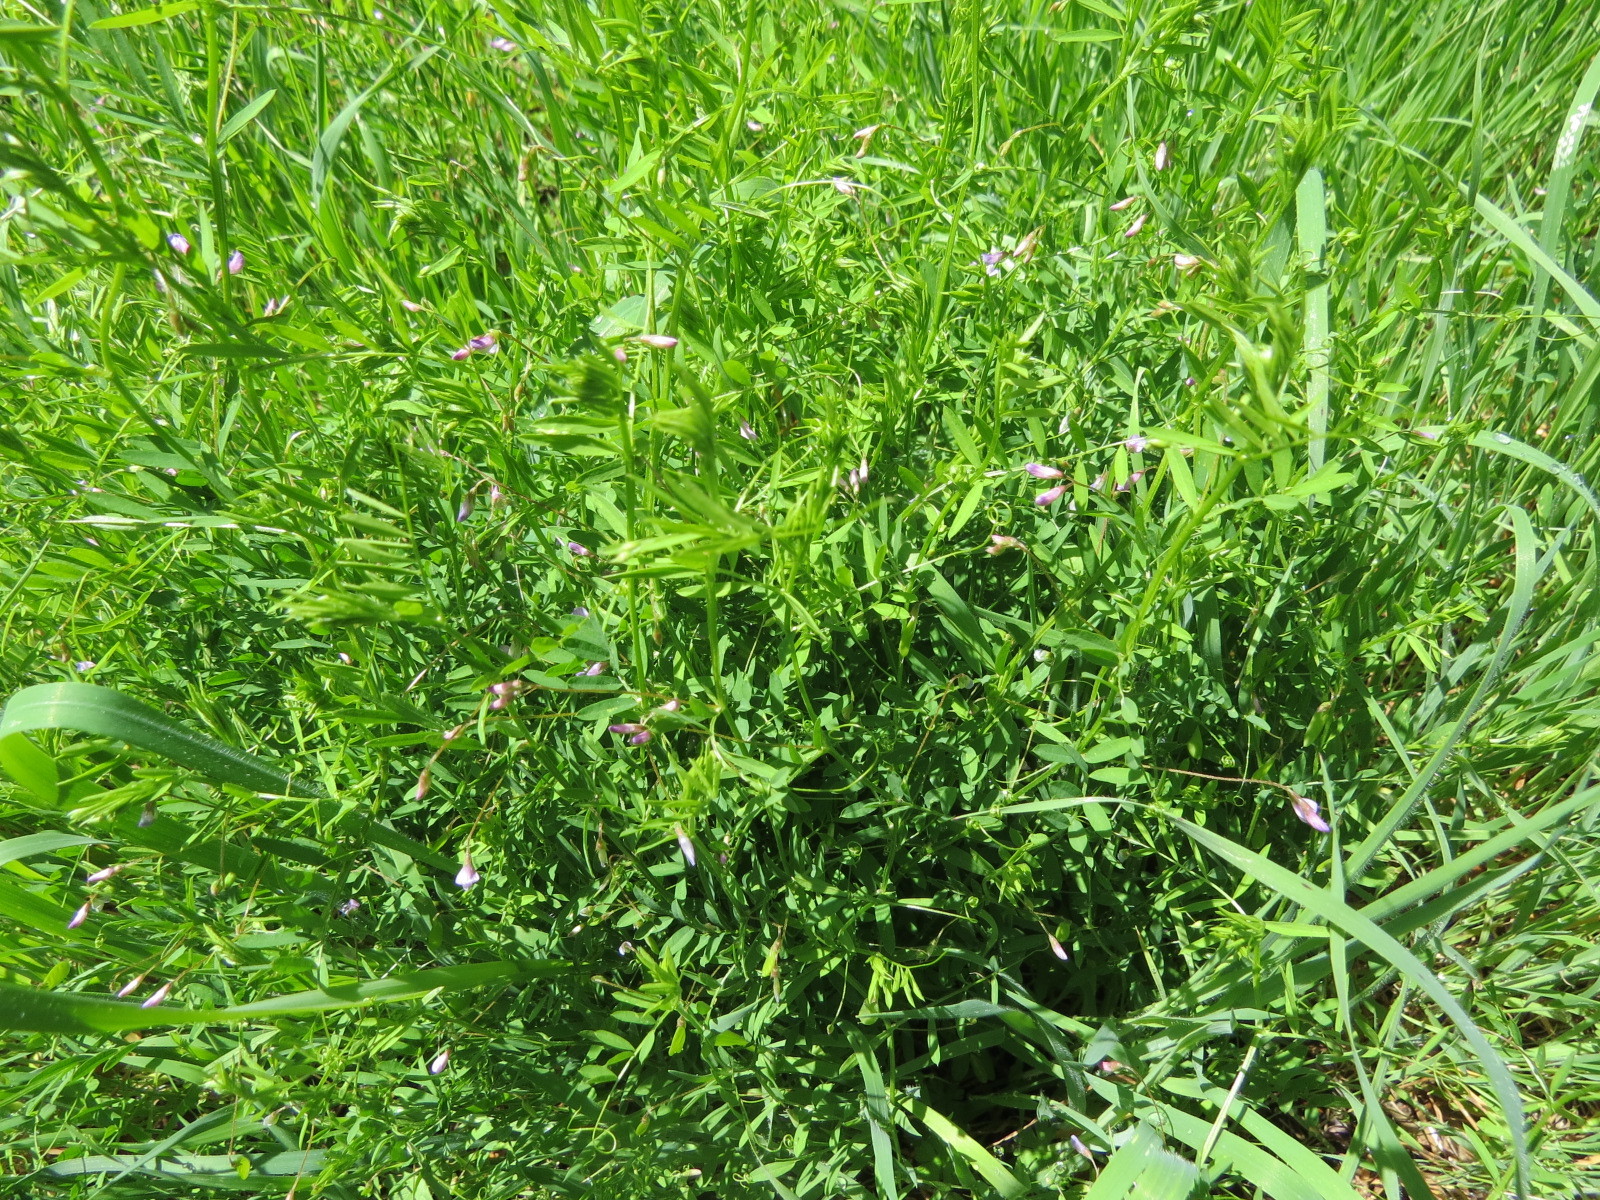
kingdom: Plantae
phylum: Tracheophyta
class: Magnoliopsida
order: Fabales
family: Fabaceae
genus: Vicia
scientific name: Vicia tetrasperma
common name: Smooth tare
